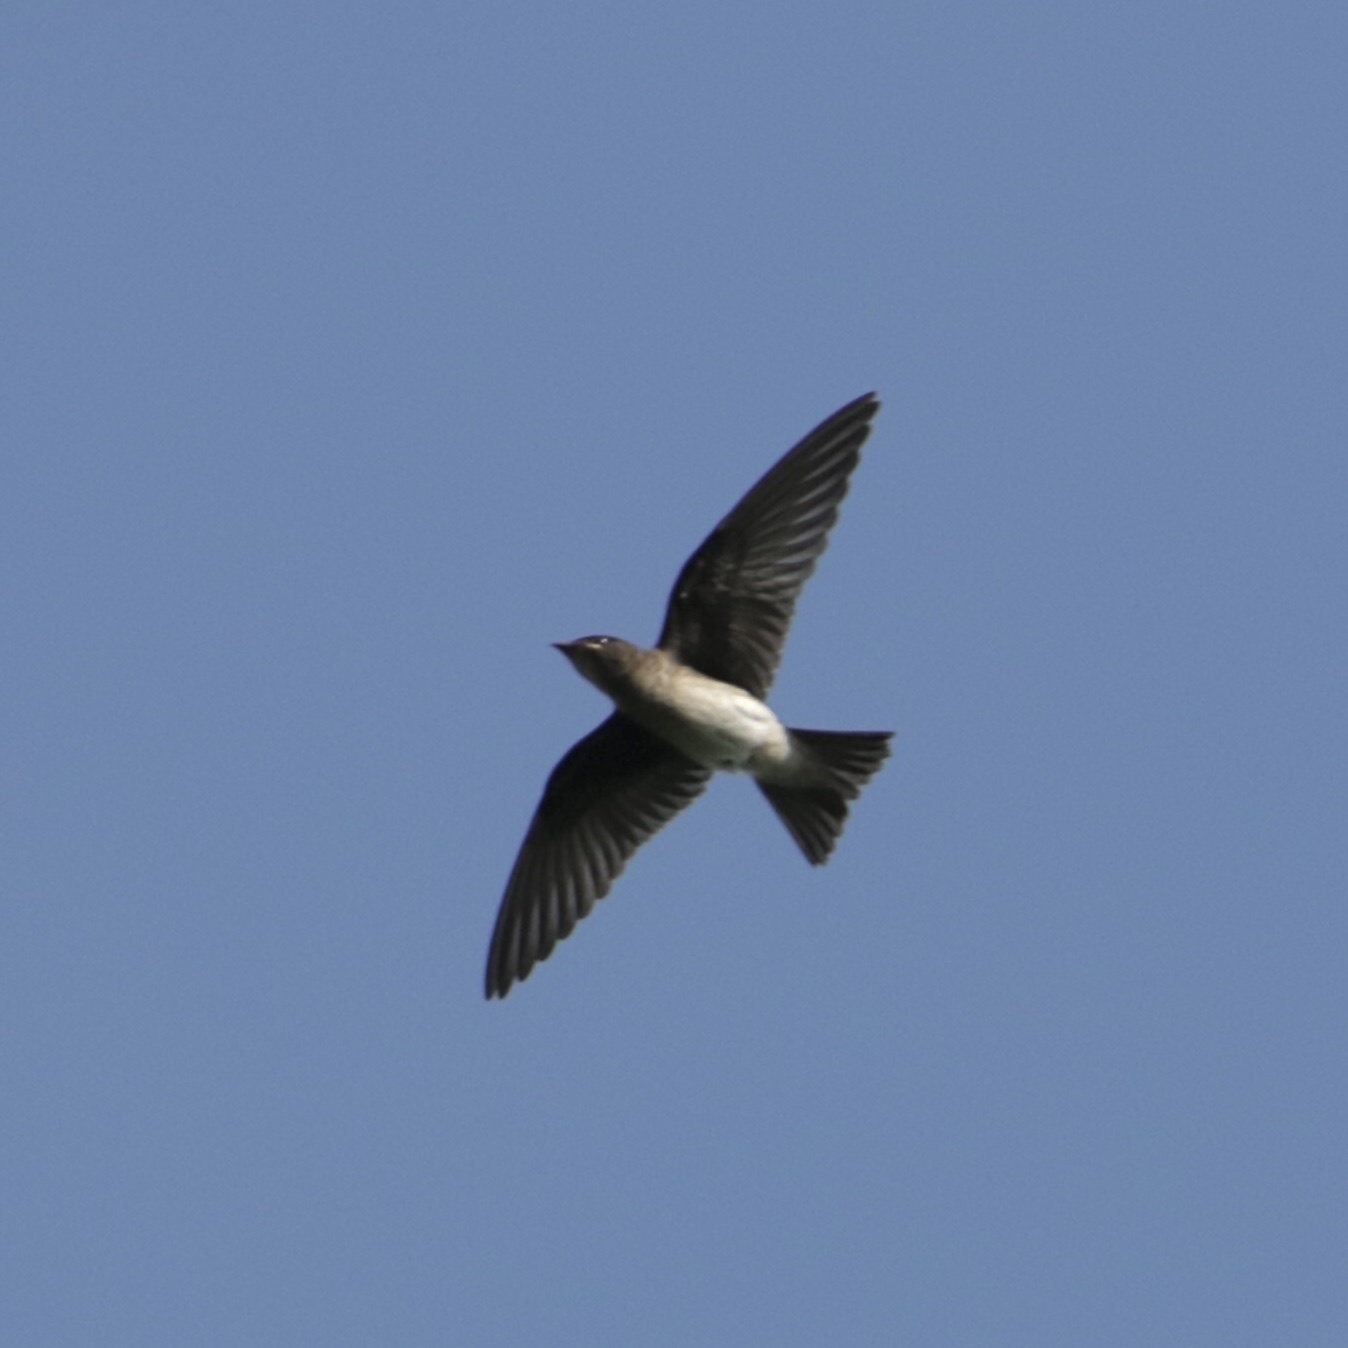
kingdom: Animalia
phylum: Chordata
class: Aves
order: Passeriformes
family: Hirundinidae
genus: Progne
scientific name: Progne chalybea
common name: Grey-breasted martin
